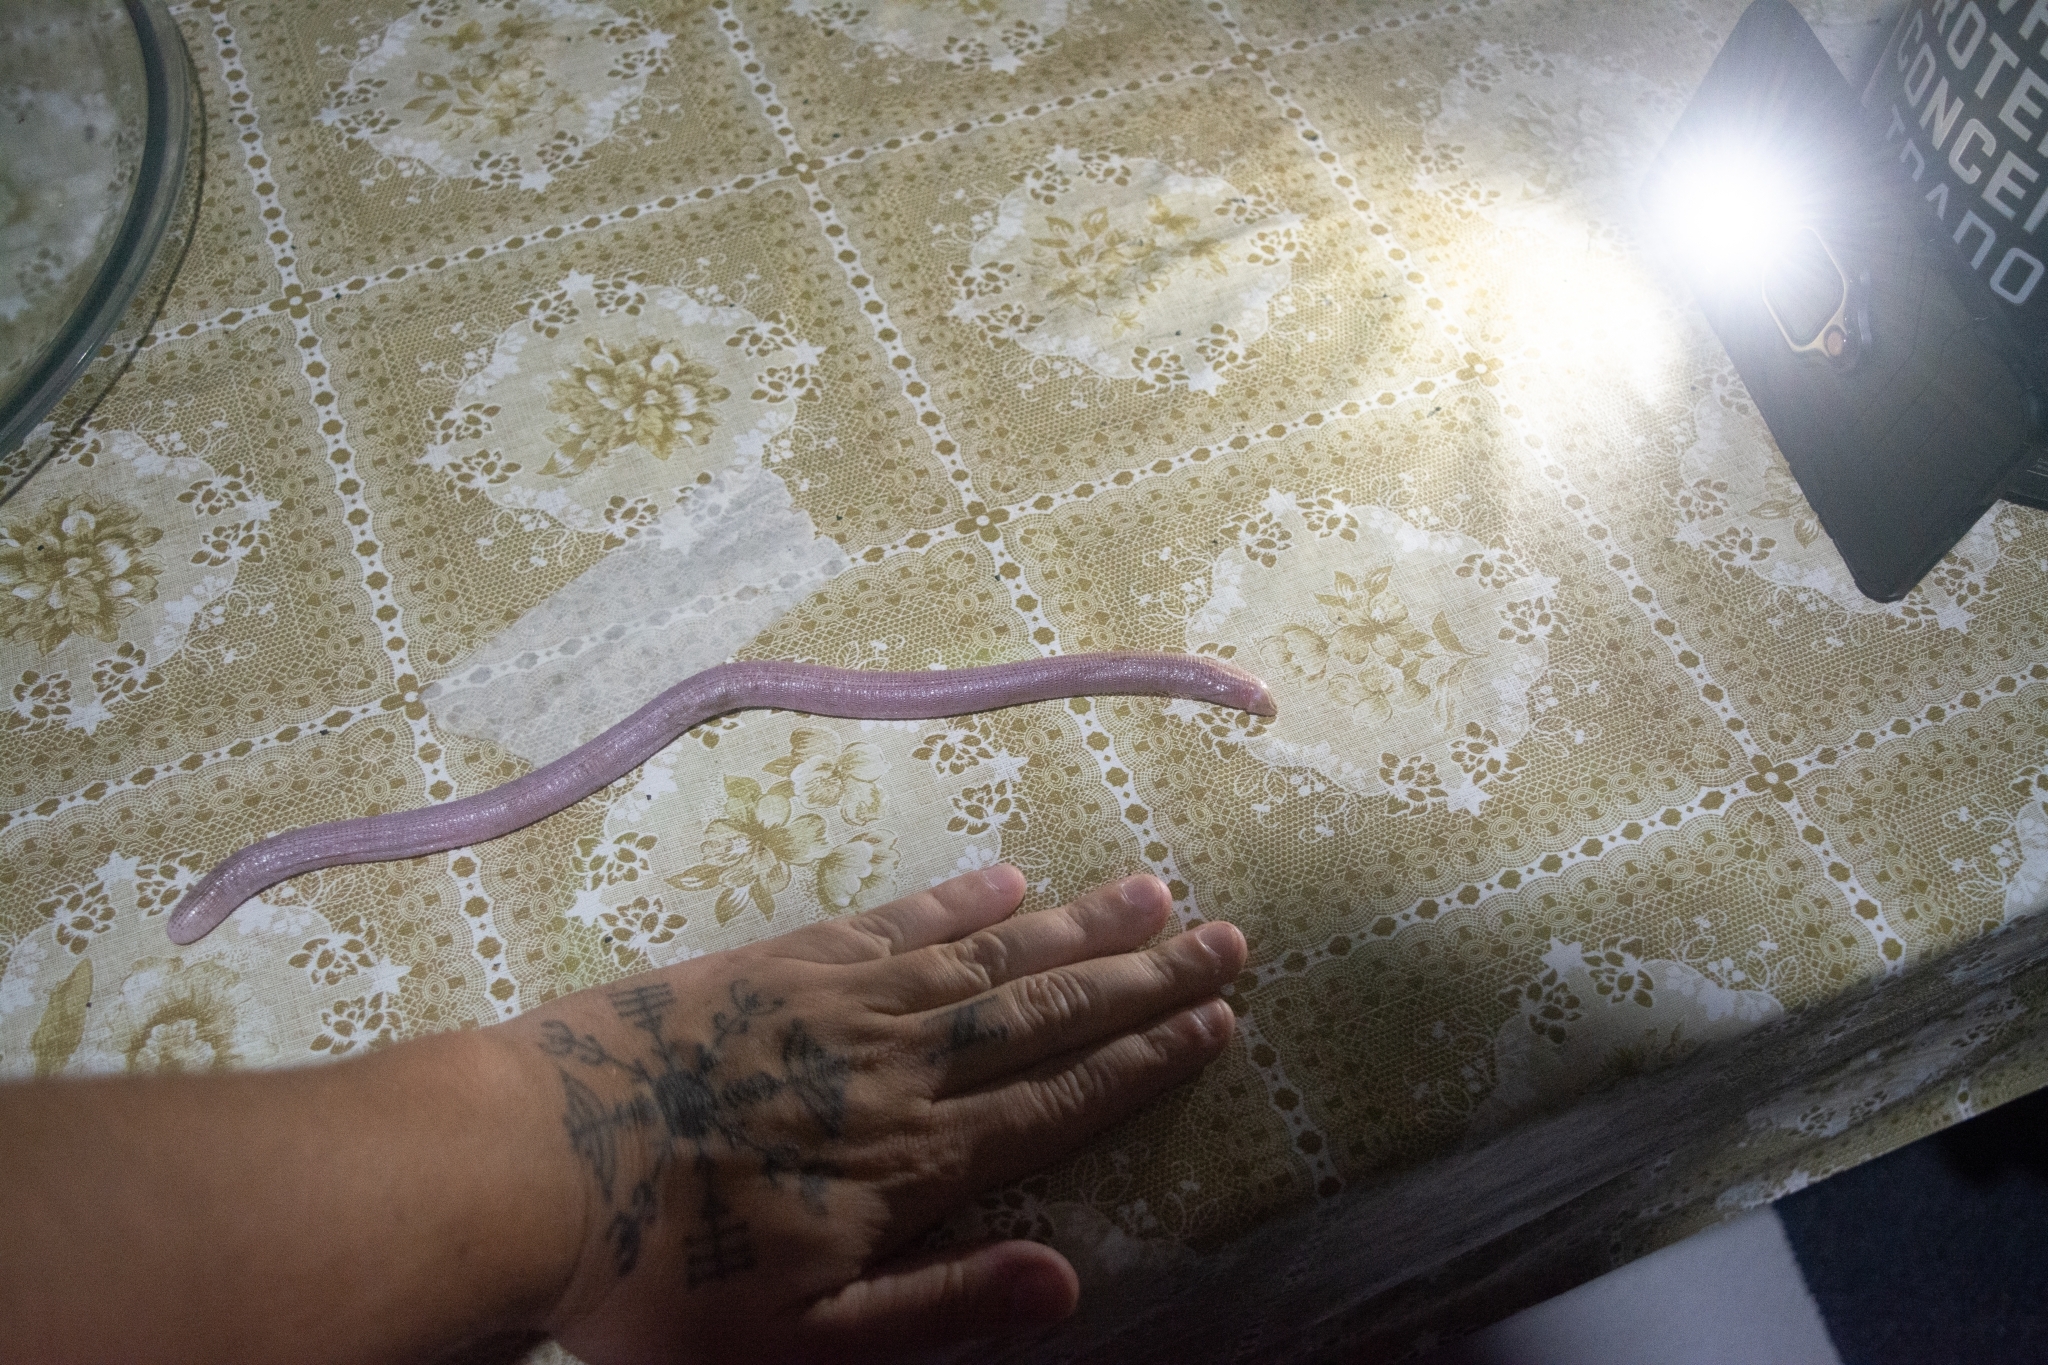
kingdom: Animalia
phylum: Chordata
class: Squamata
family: Amphisbaenidae
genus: Leposternon
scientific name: Leposternon microcephalum
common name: Smallhead worm lizard
